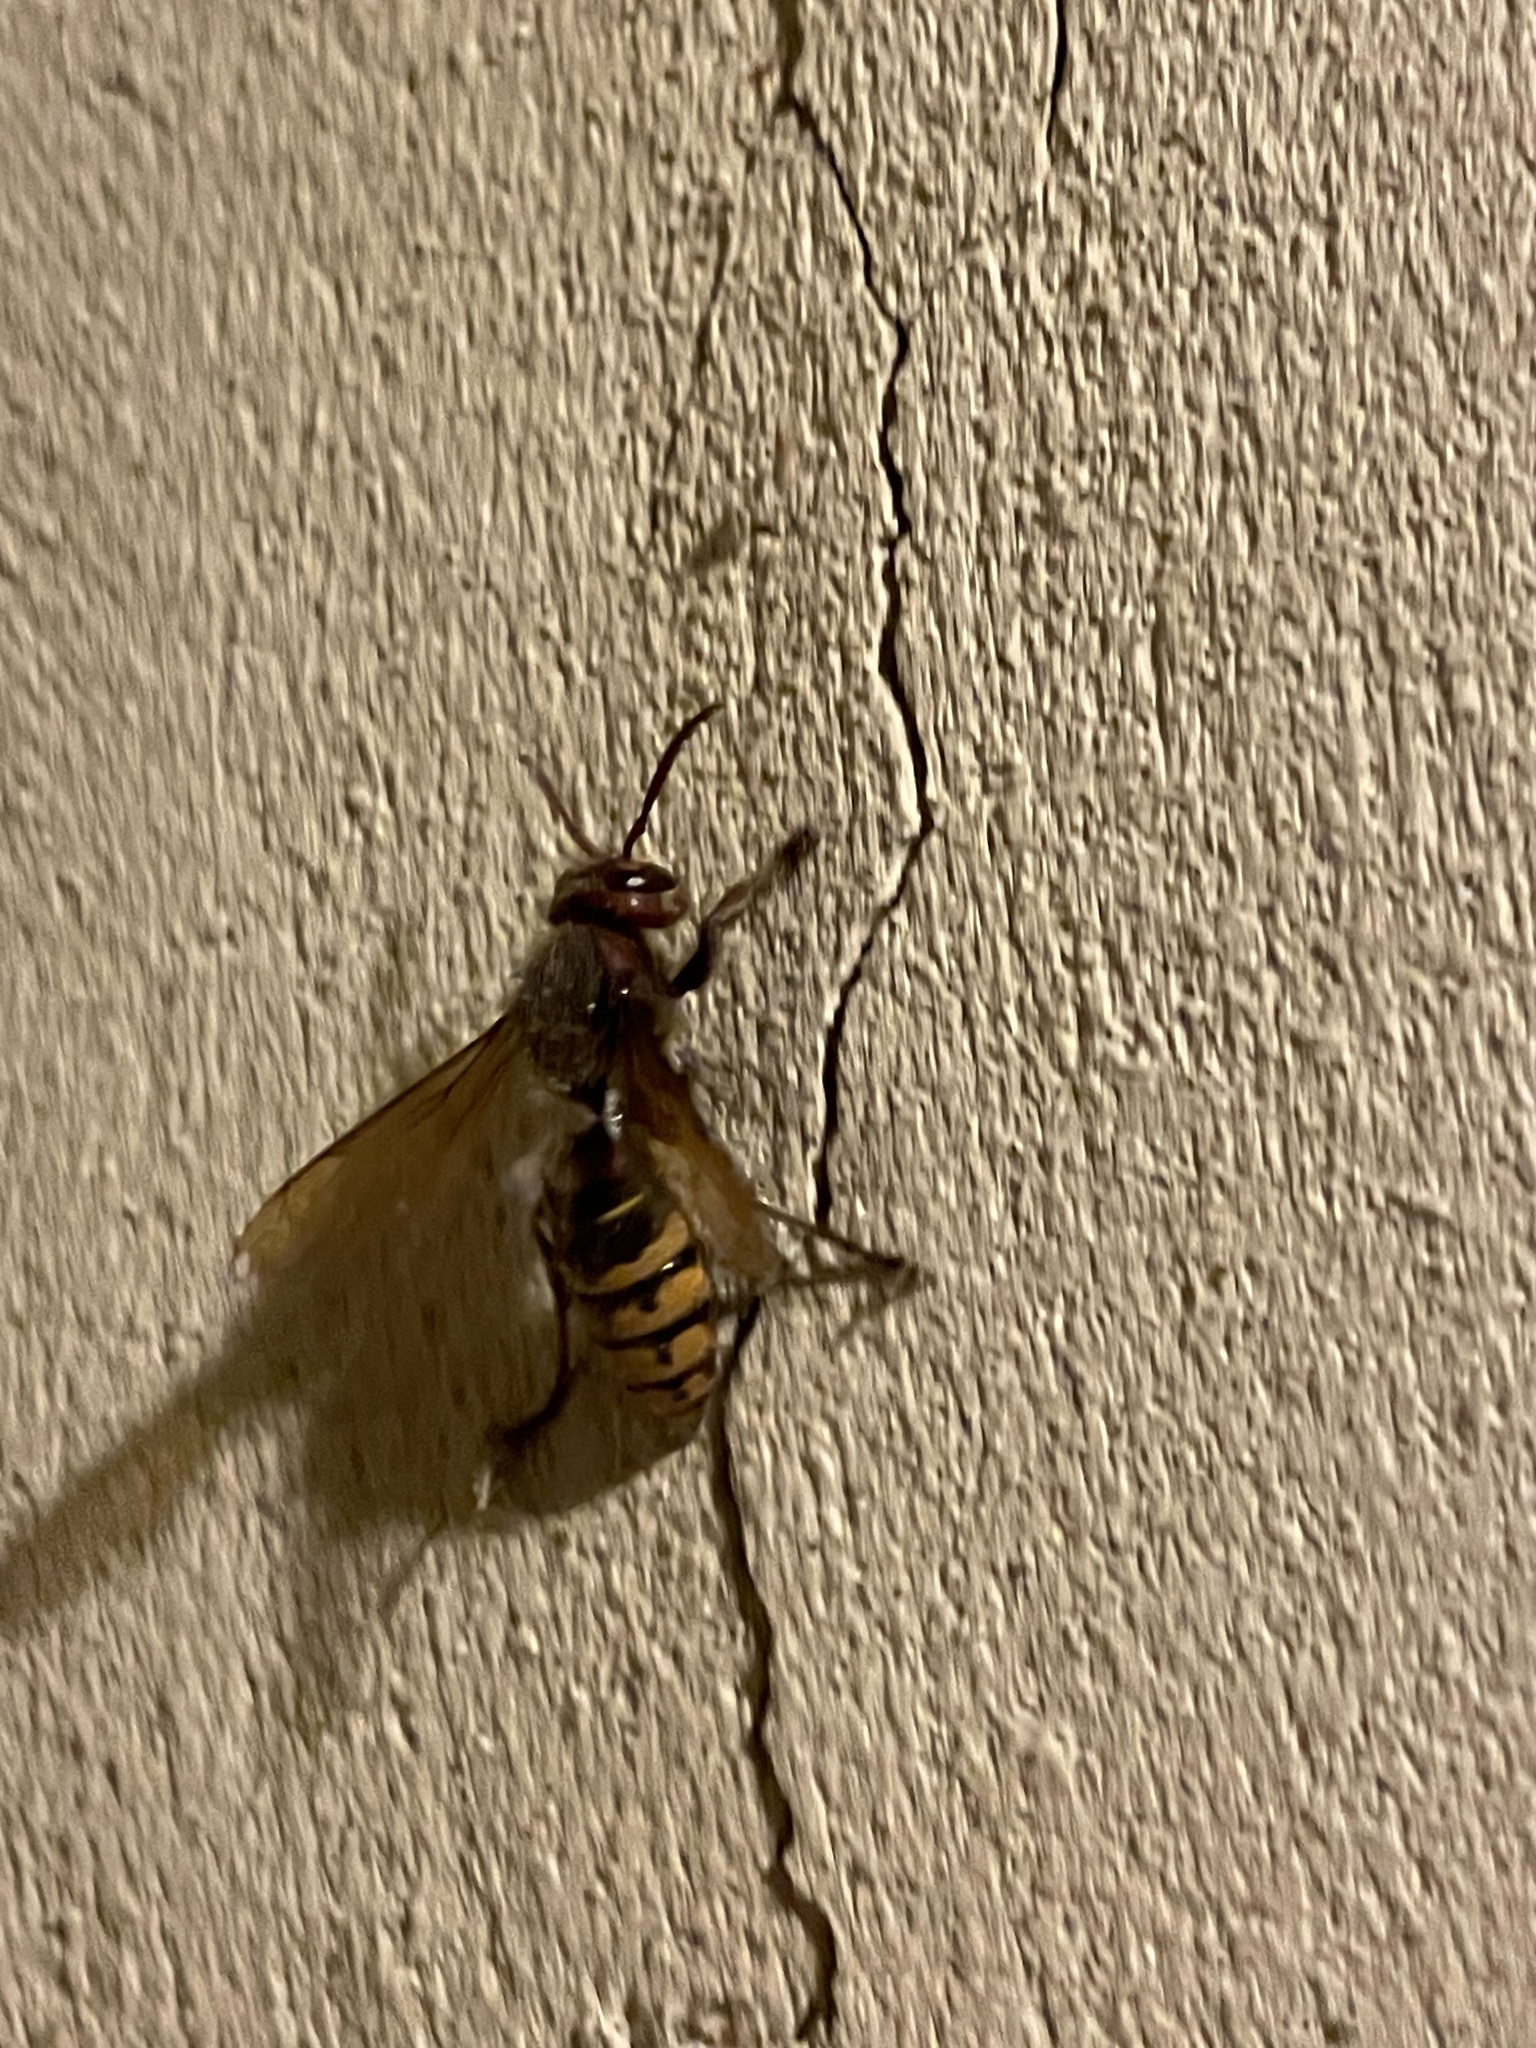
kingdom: Animalia
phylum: Arthropoda
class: Insecta
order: Hymenoptera
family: Vespidae
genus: Vespa
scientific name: Vespa crabro
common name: Hornet
